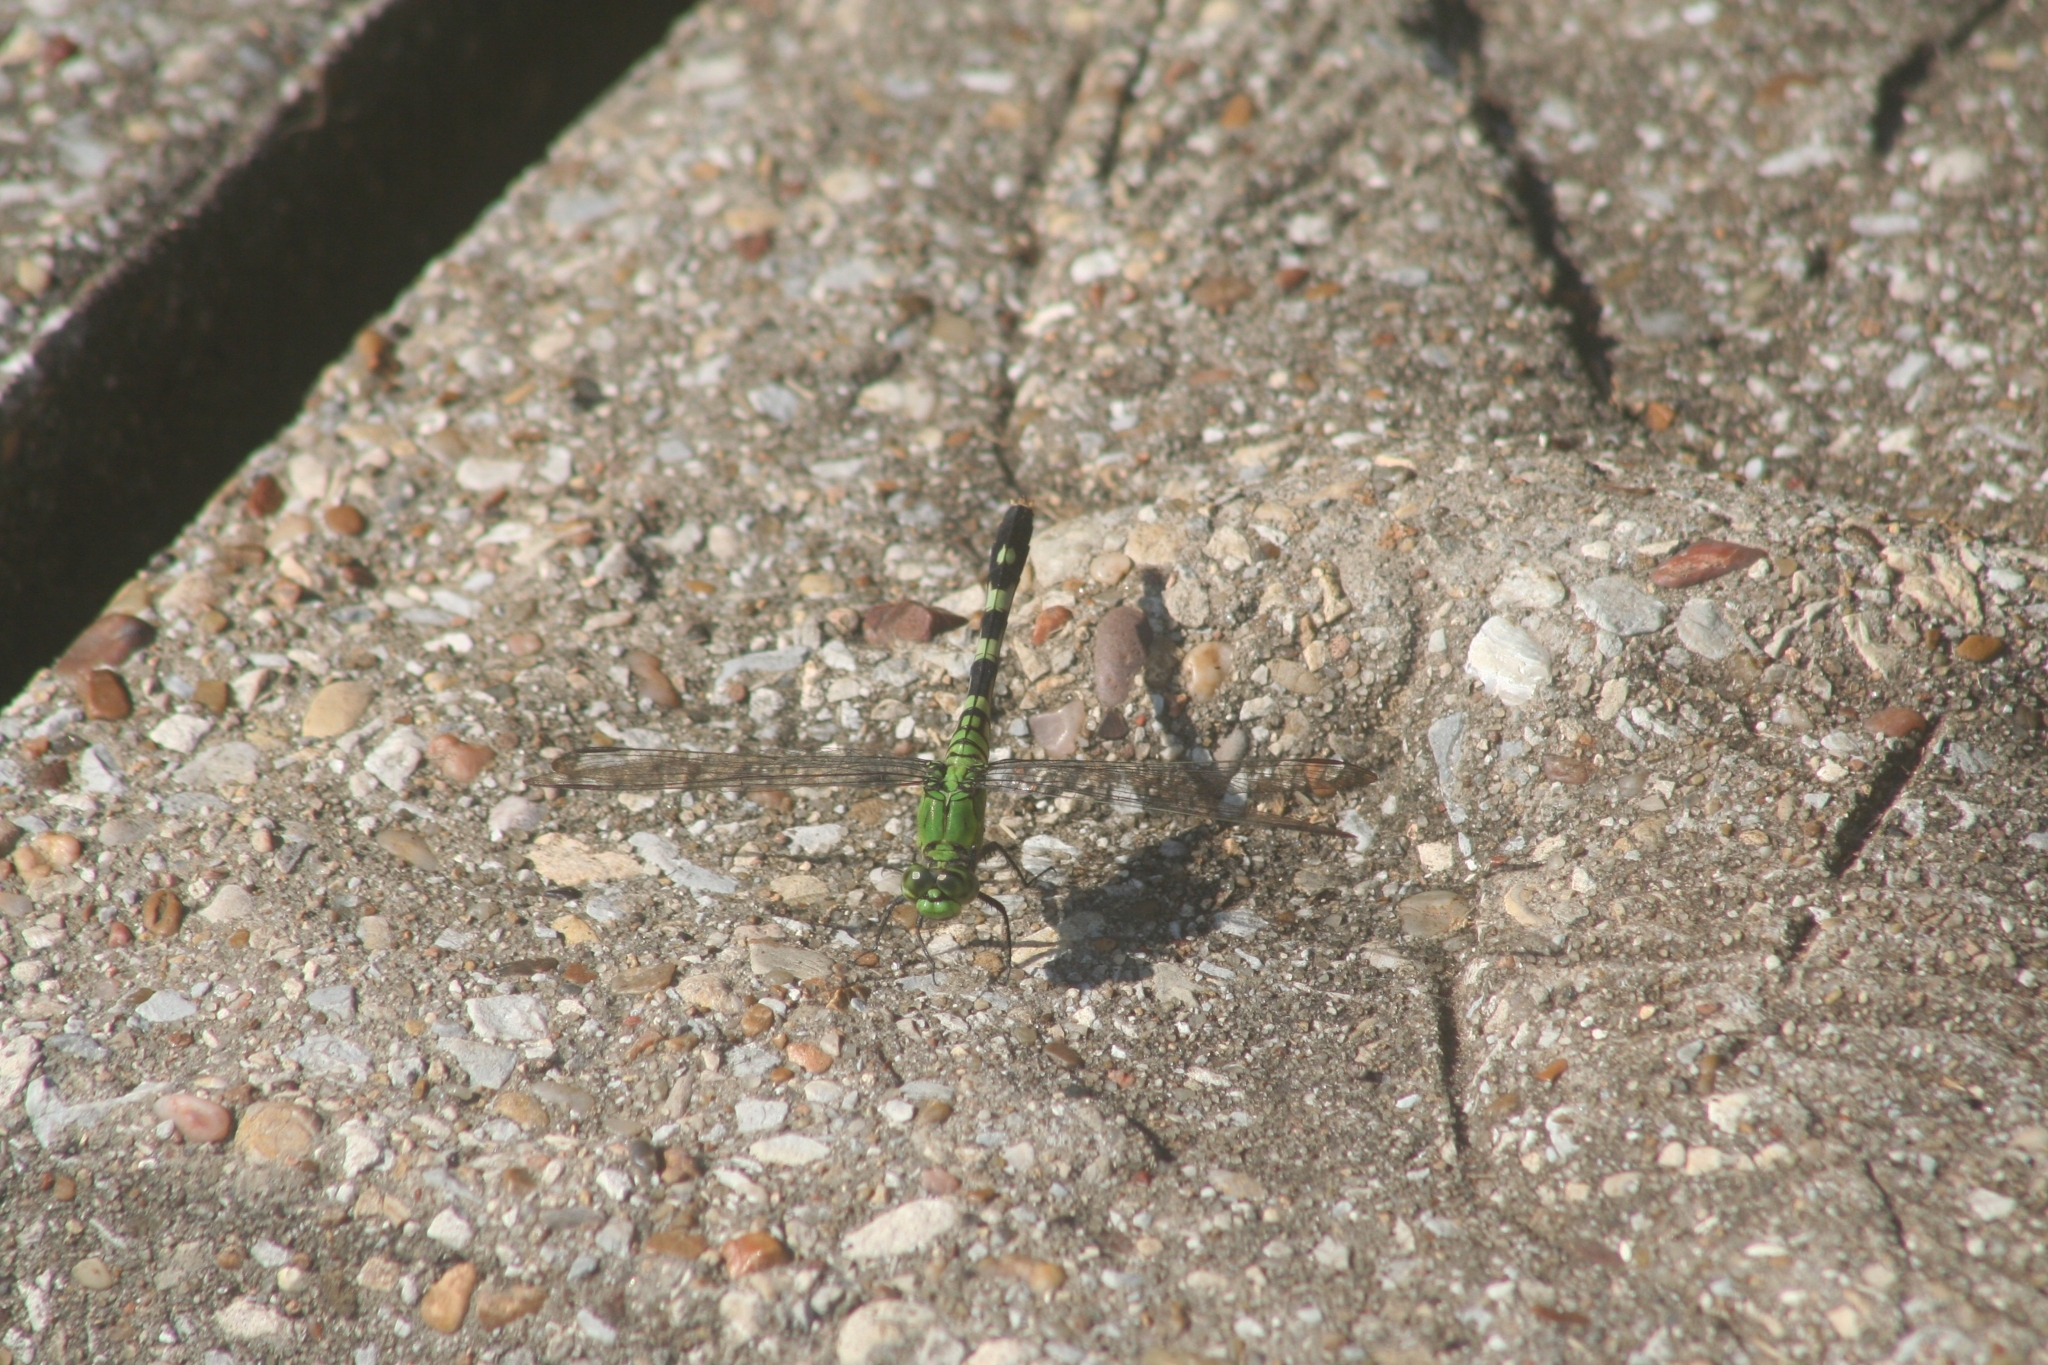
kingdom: Animalia
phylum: Arthropoda
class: Insecta
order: Odonata
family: Libellulidae
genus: Erythemis
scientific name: Erythemis simplicicollis
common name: Eastern pondhawk
